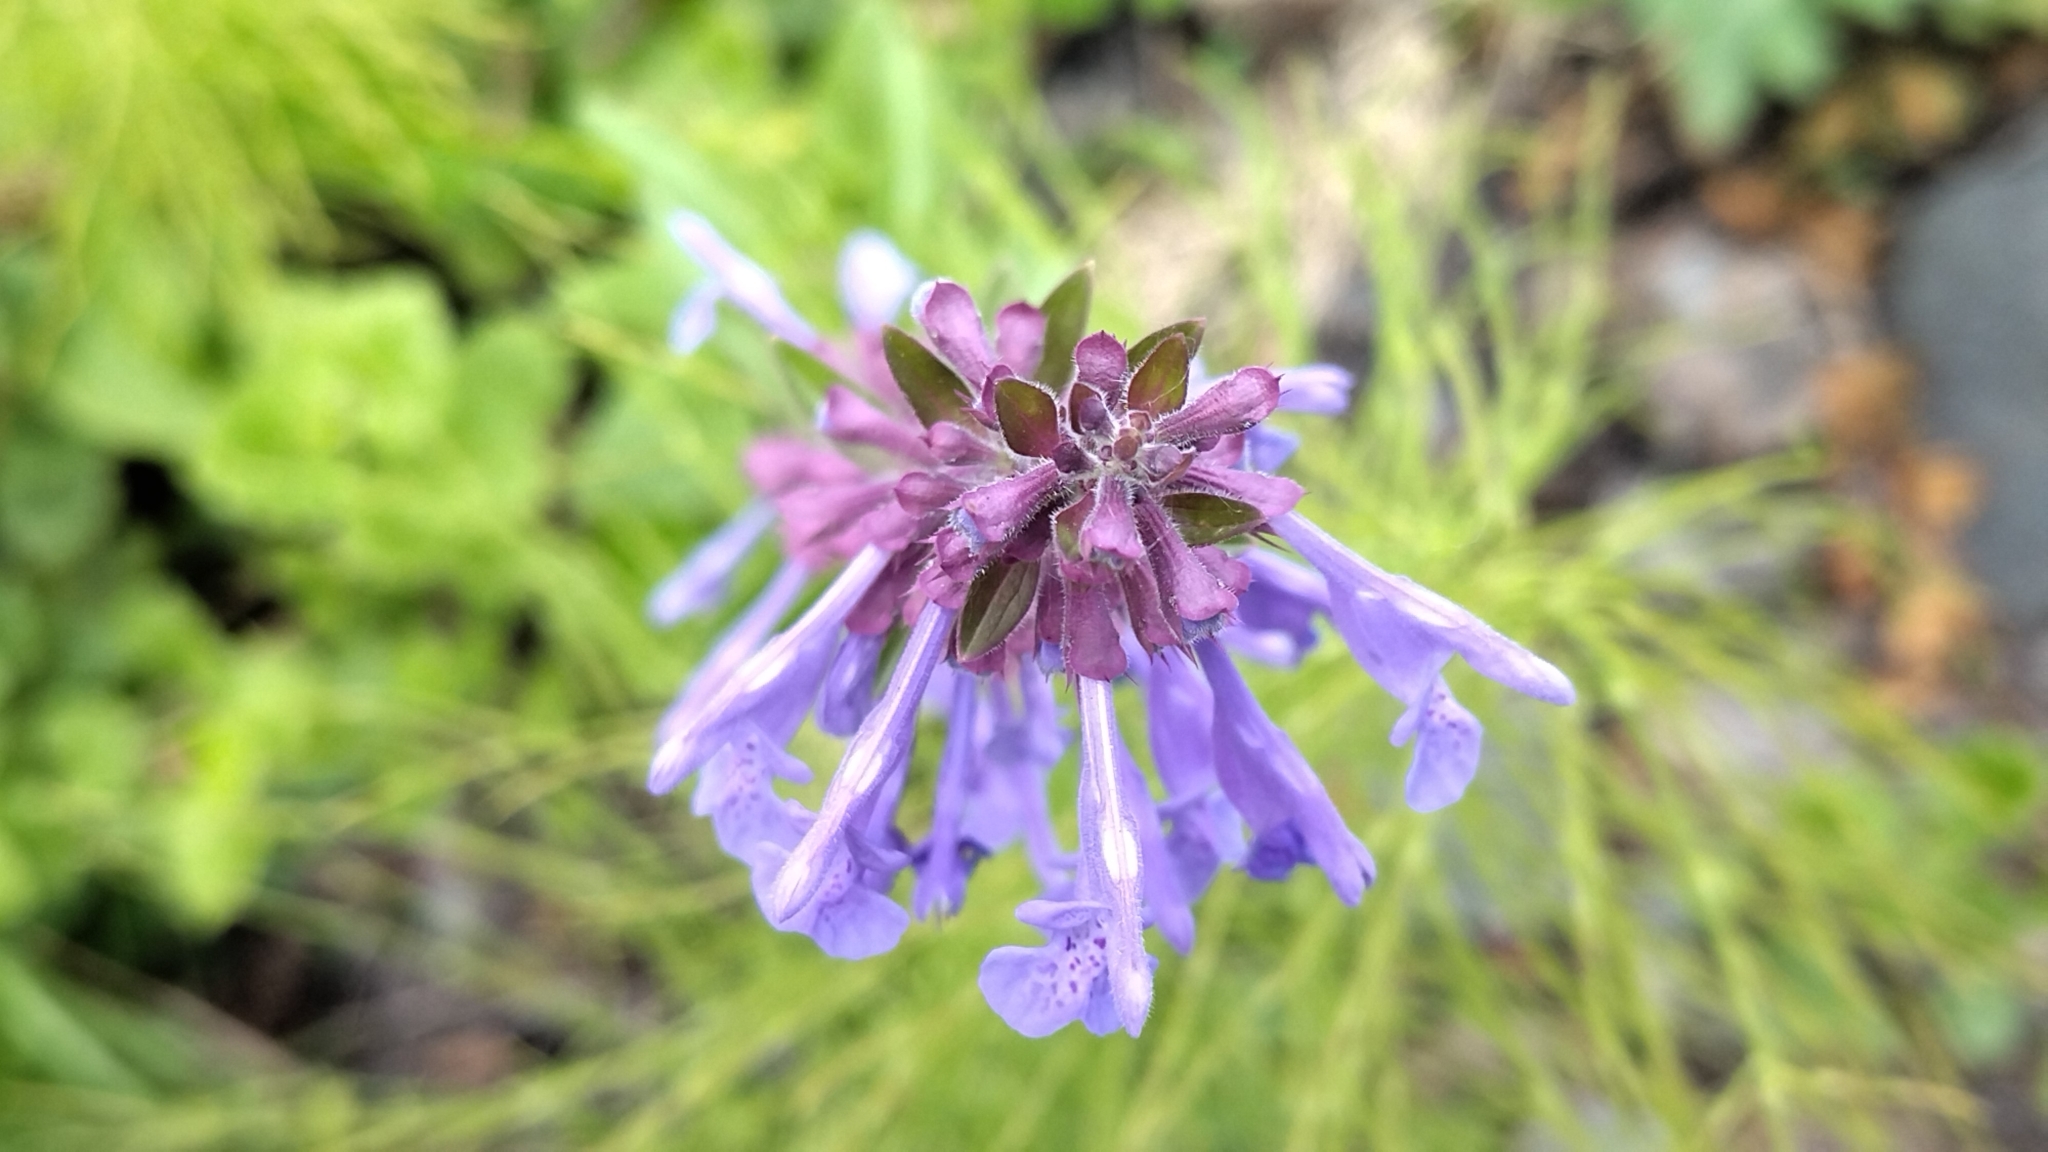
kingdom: Plantae
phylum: Tracheophyta
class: Magnoliopsida
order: Lamiales
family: Lamiaceae
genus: Dracocephalum
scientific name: Dracocephalum nutans
